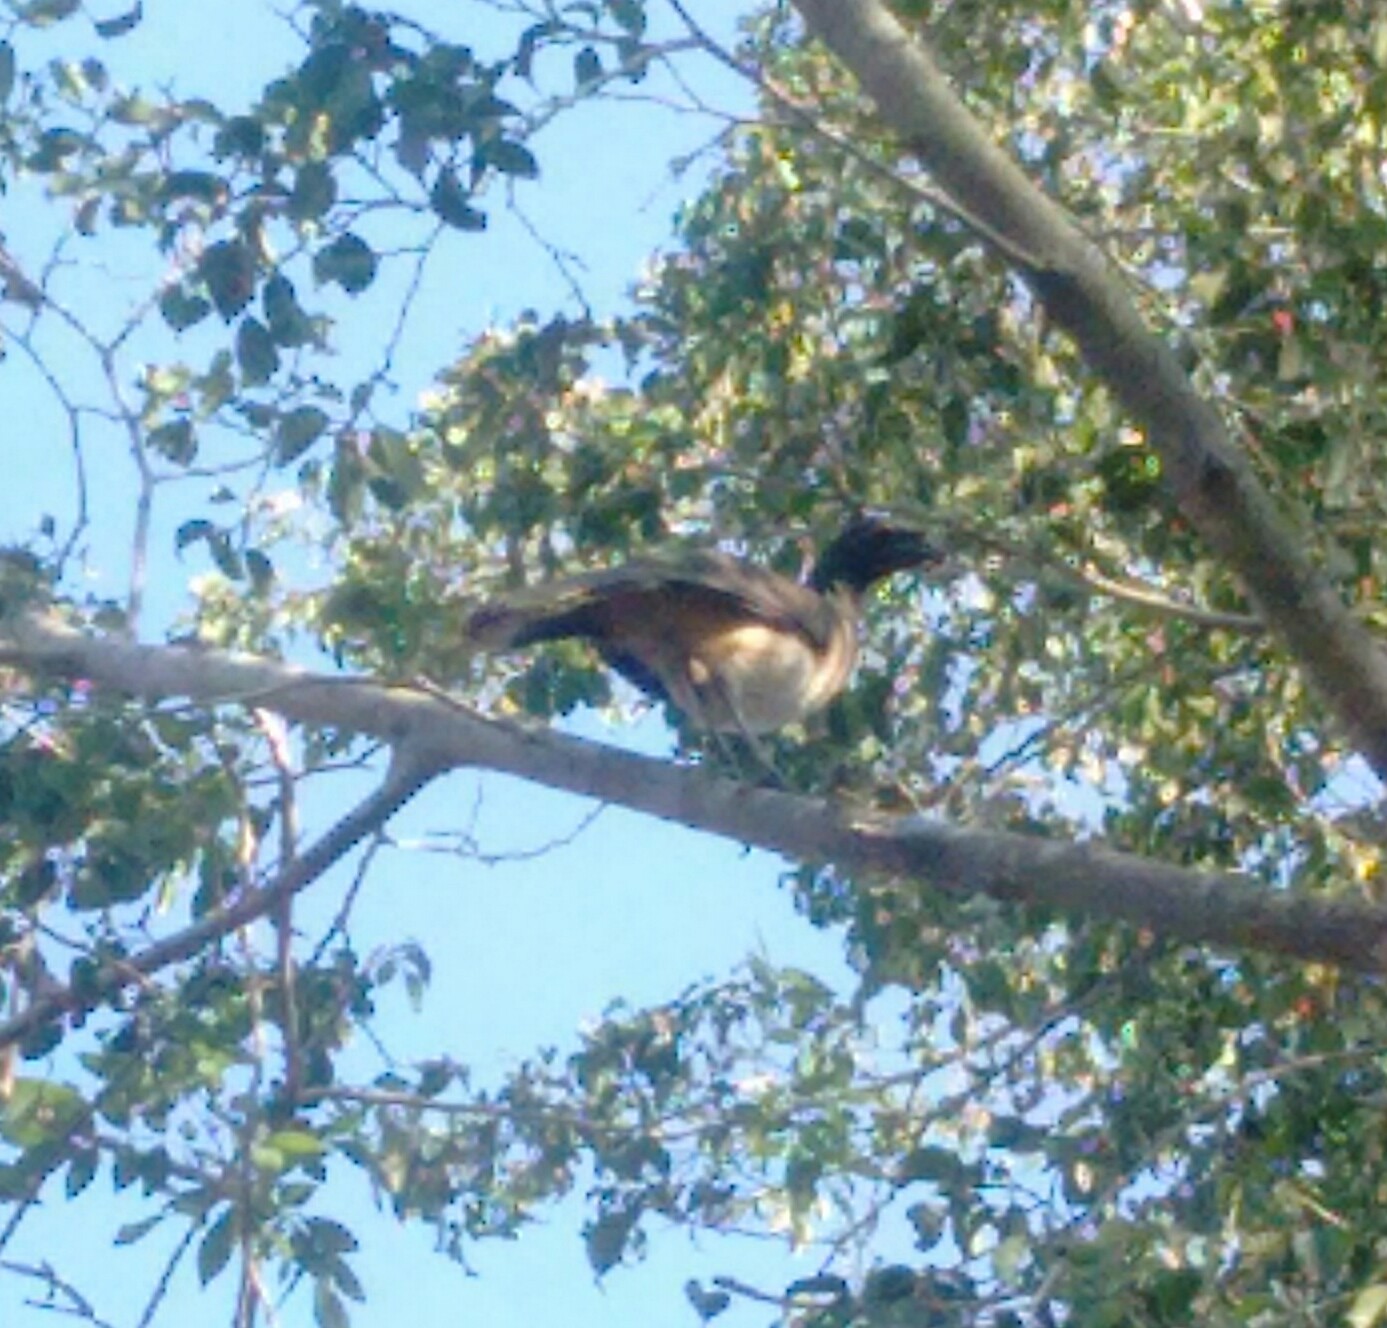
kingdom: Animalia
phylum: Chordata
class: Aves
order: Galliformes
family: Cracidae
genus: Ortalis
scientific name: Ortalis poliocephala
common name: West mexican chachalaca
